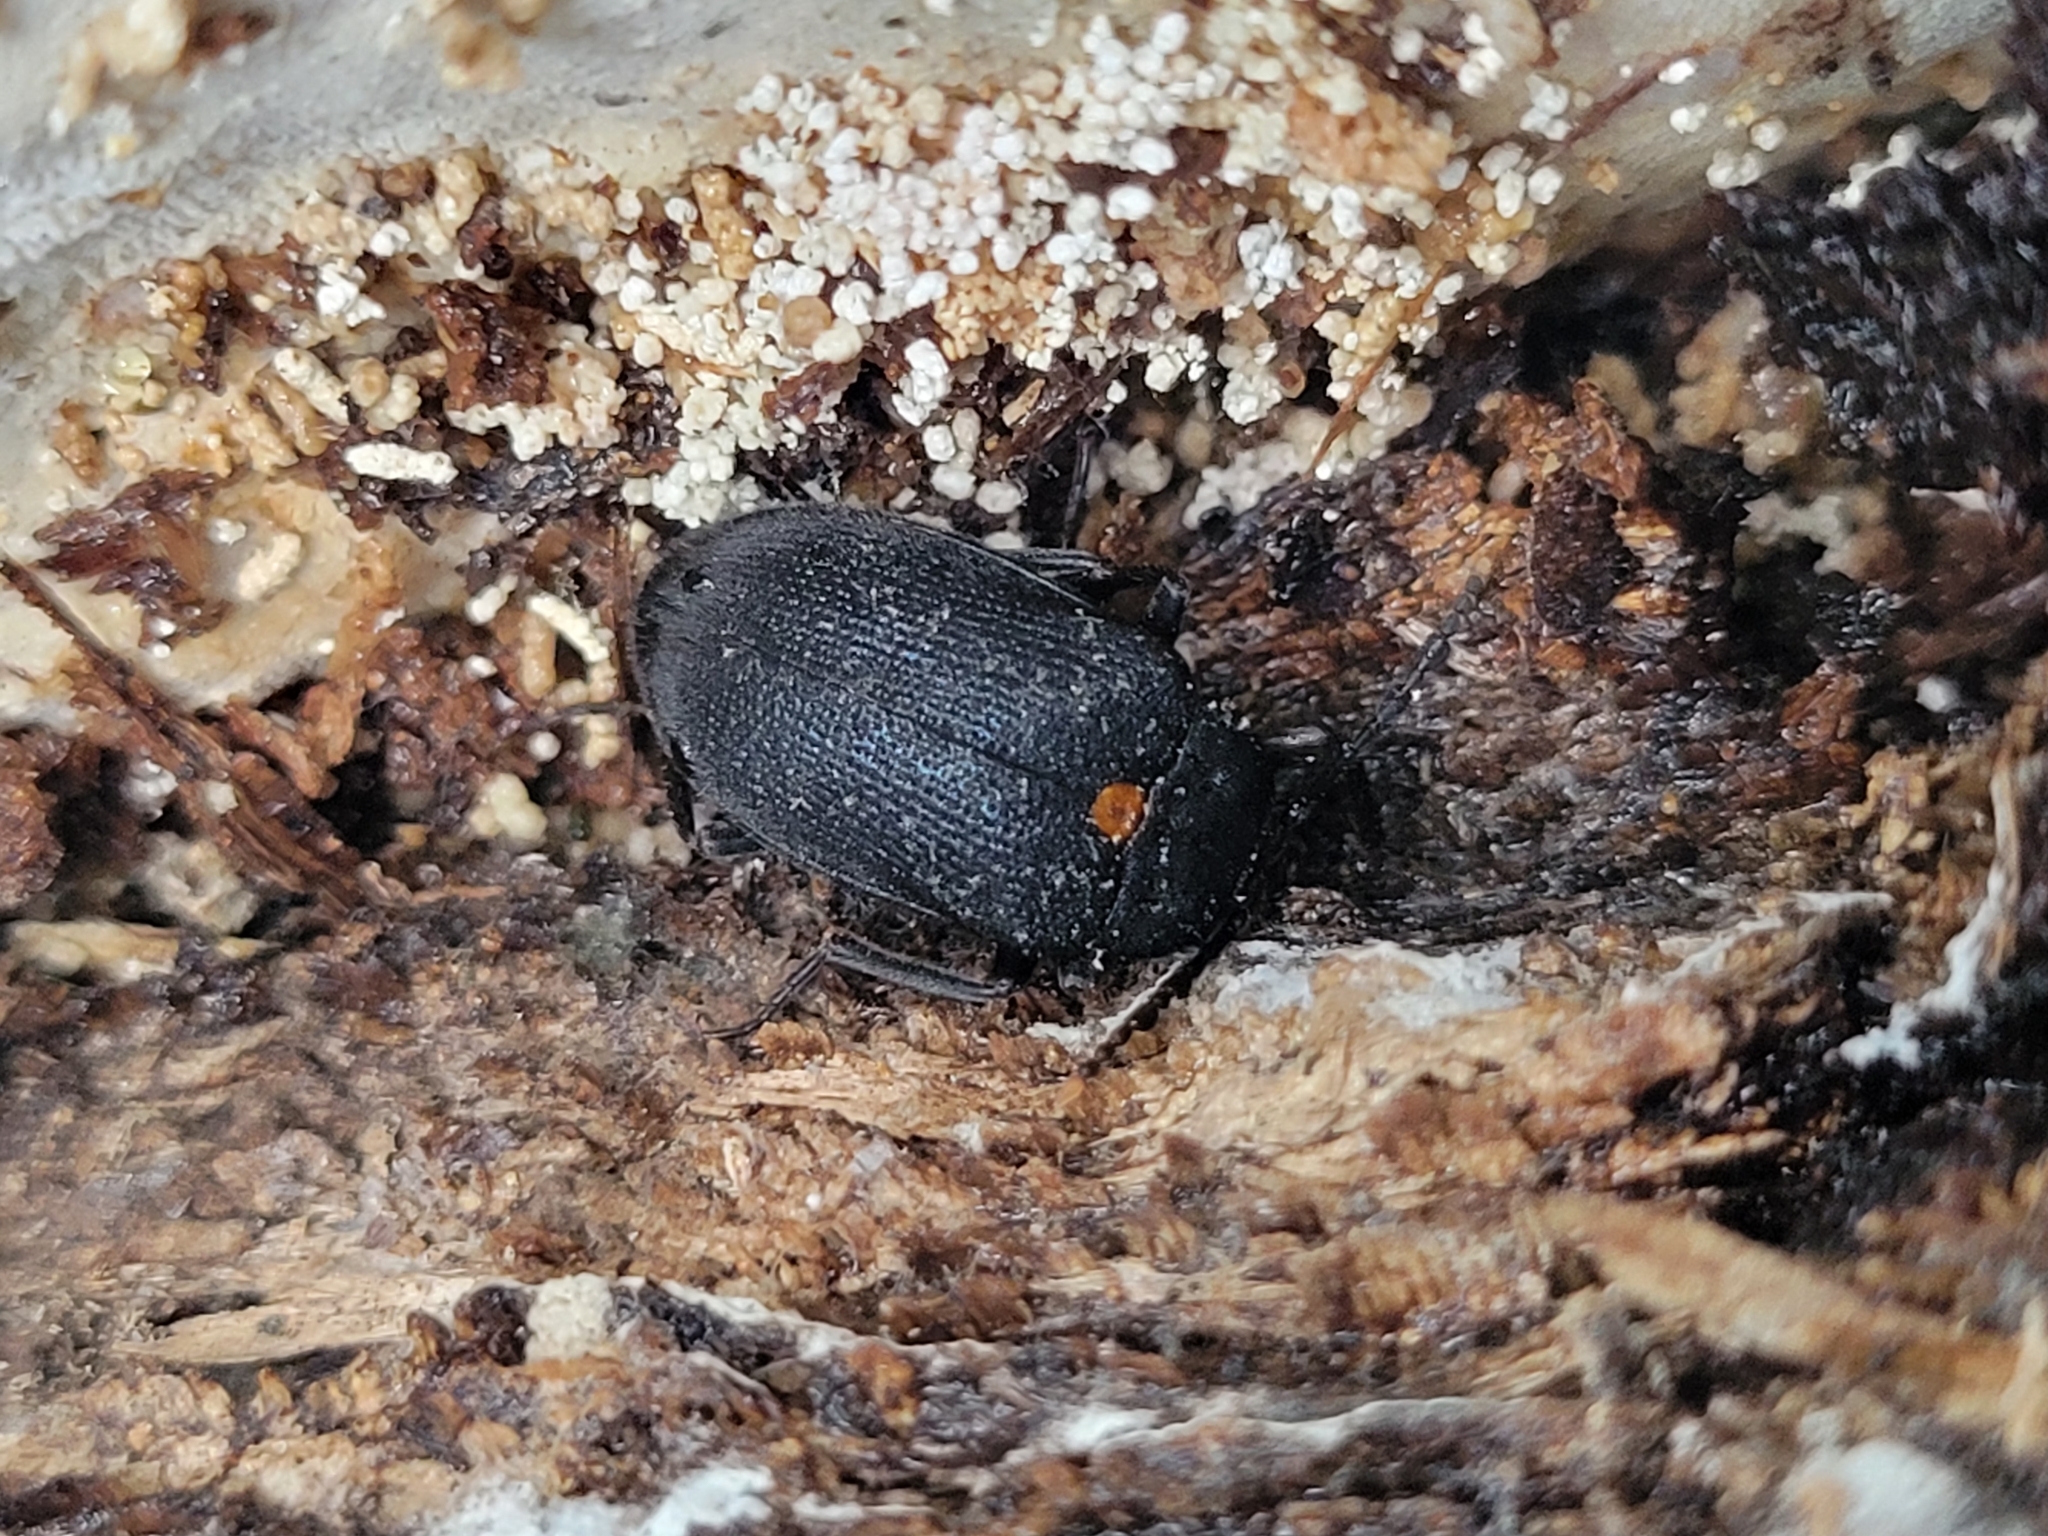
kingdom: Animalia
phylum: Arthropoda
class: Insecta
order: Coleoptera
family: Tetratomidae
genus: Penthe
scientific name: Penthe obliquata
